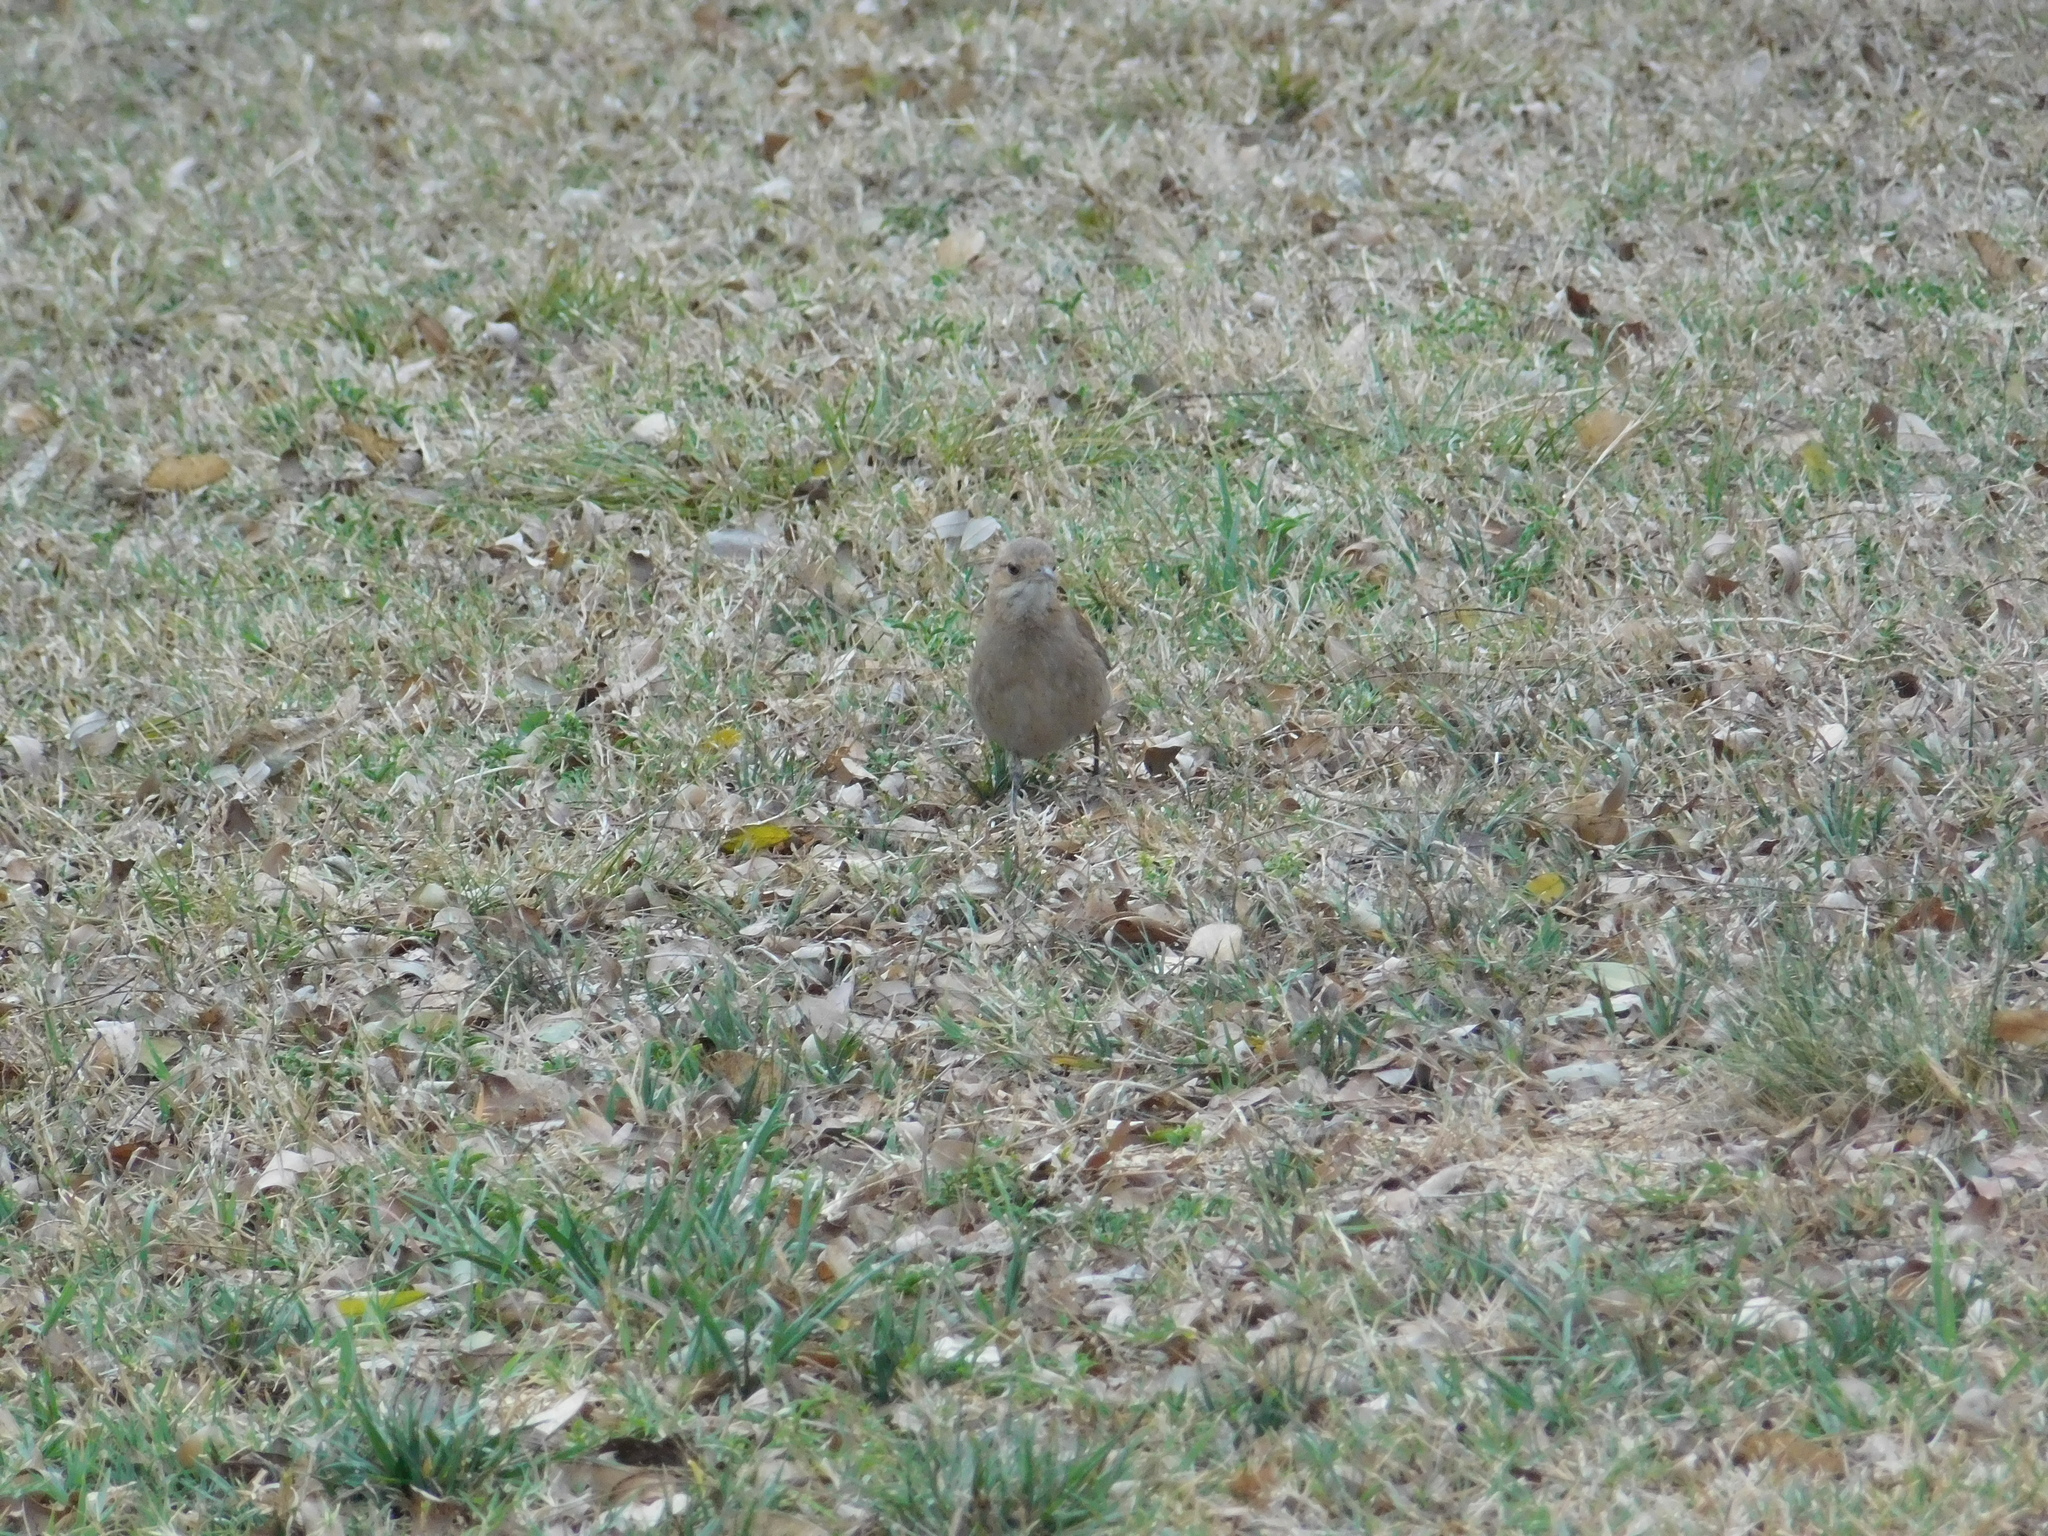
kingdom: Animalia
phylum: Chordata
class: Aves
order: Passeriformes
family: Furnariidae
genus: Furnarius
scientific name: Furnarius rufus
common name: Rufous hornero
